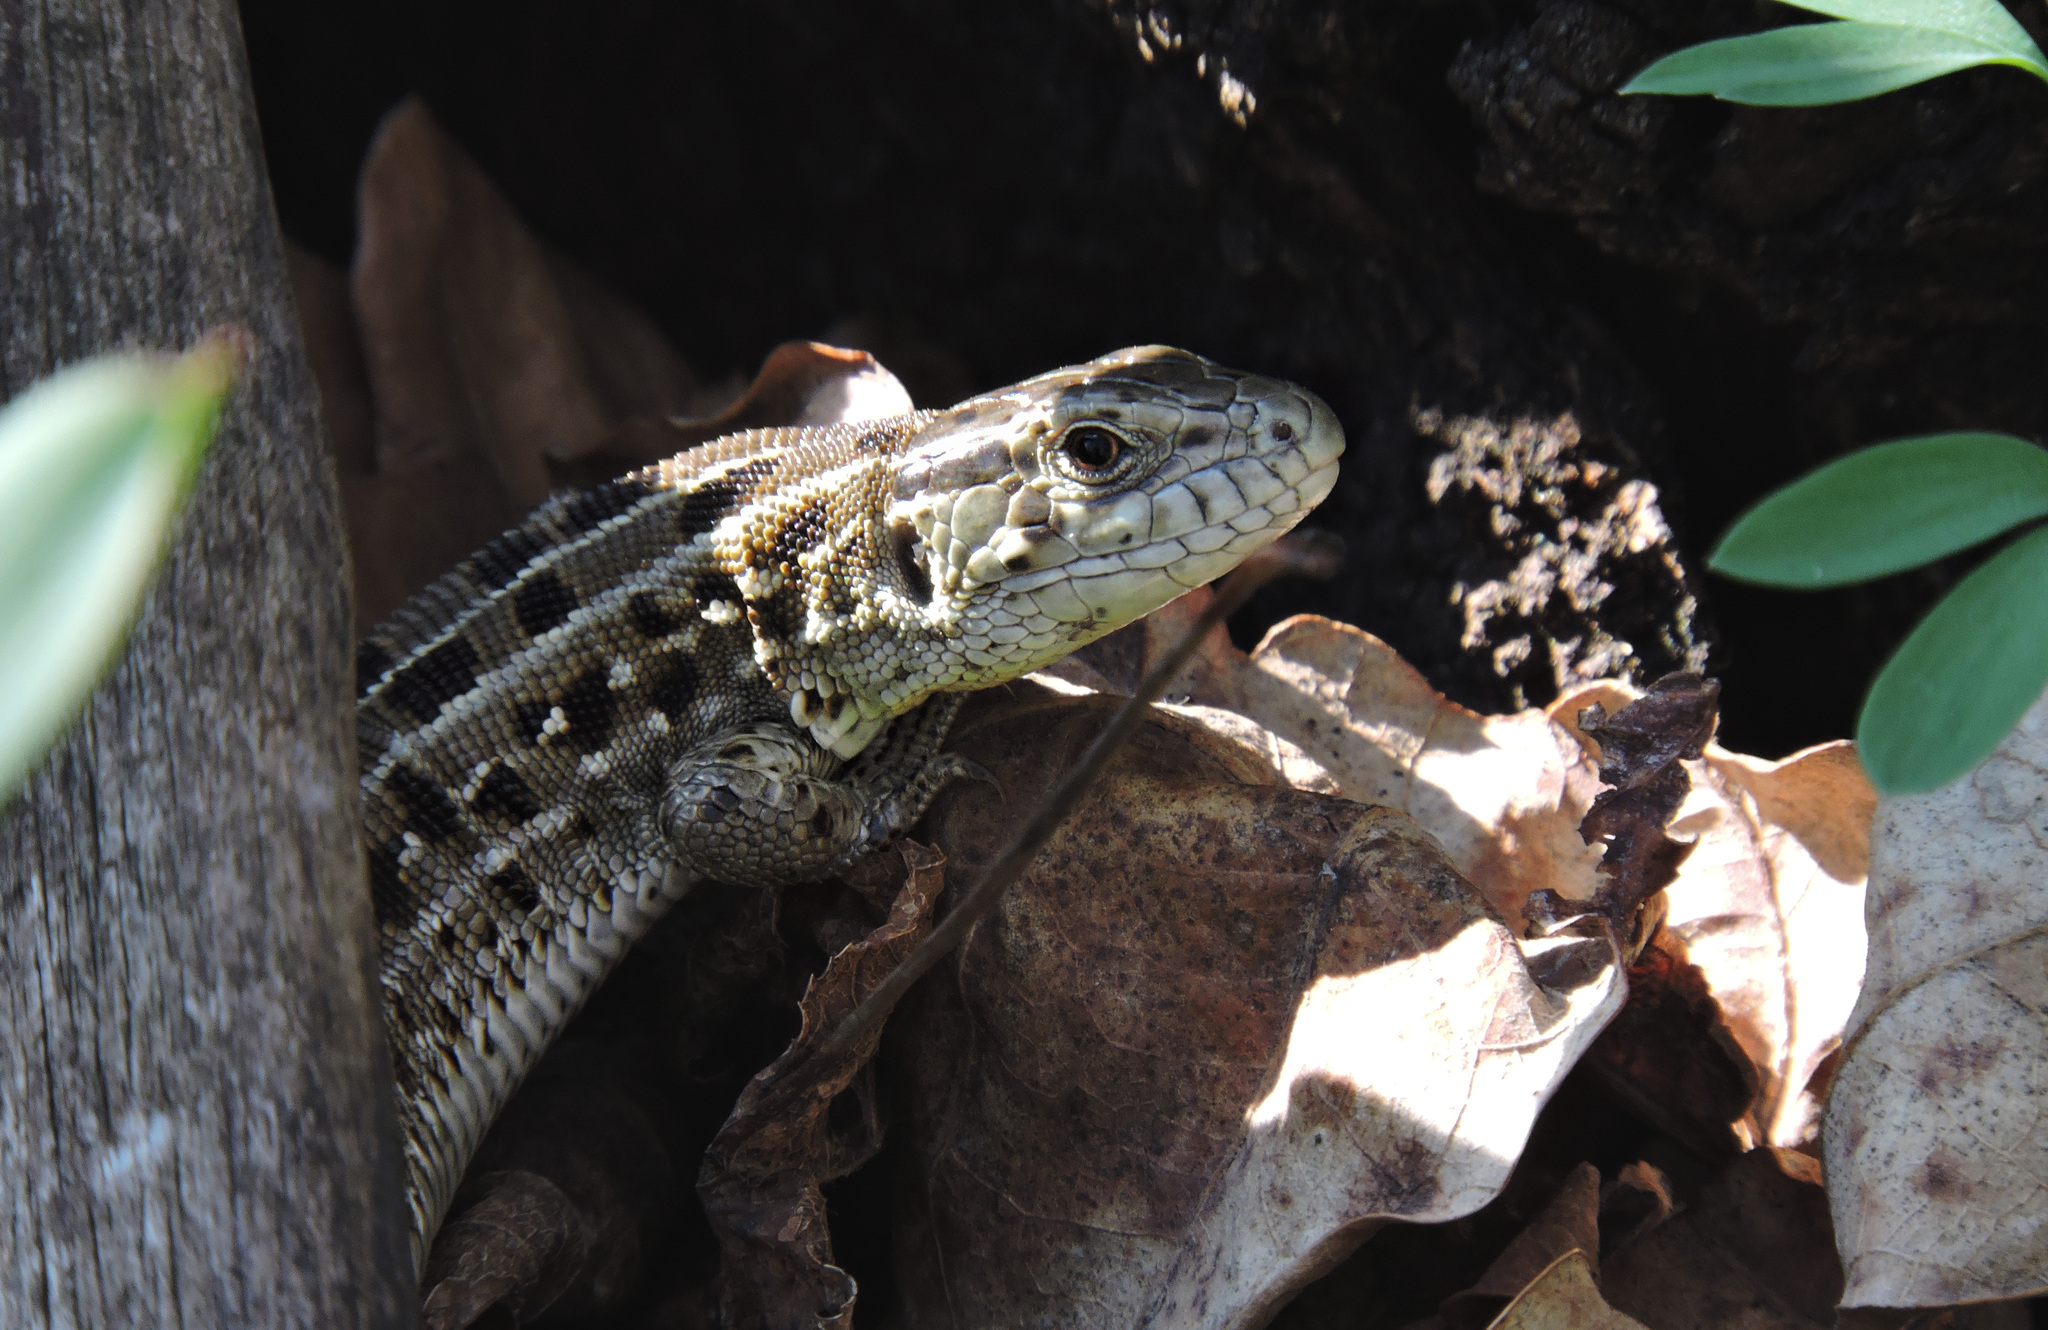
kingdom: Animalia
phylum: Chordata
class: Squamata
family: Lacertidae
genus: Lacerta
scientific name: Lacerta agilis
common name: Sand lizard
